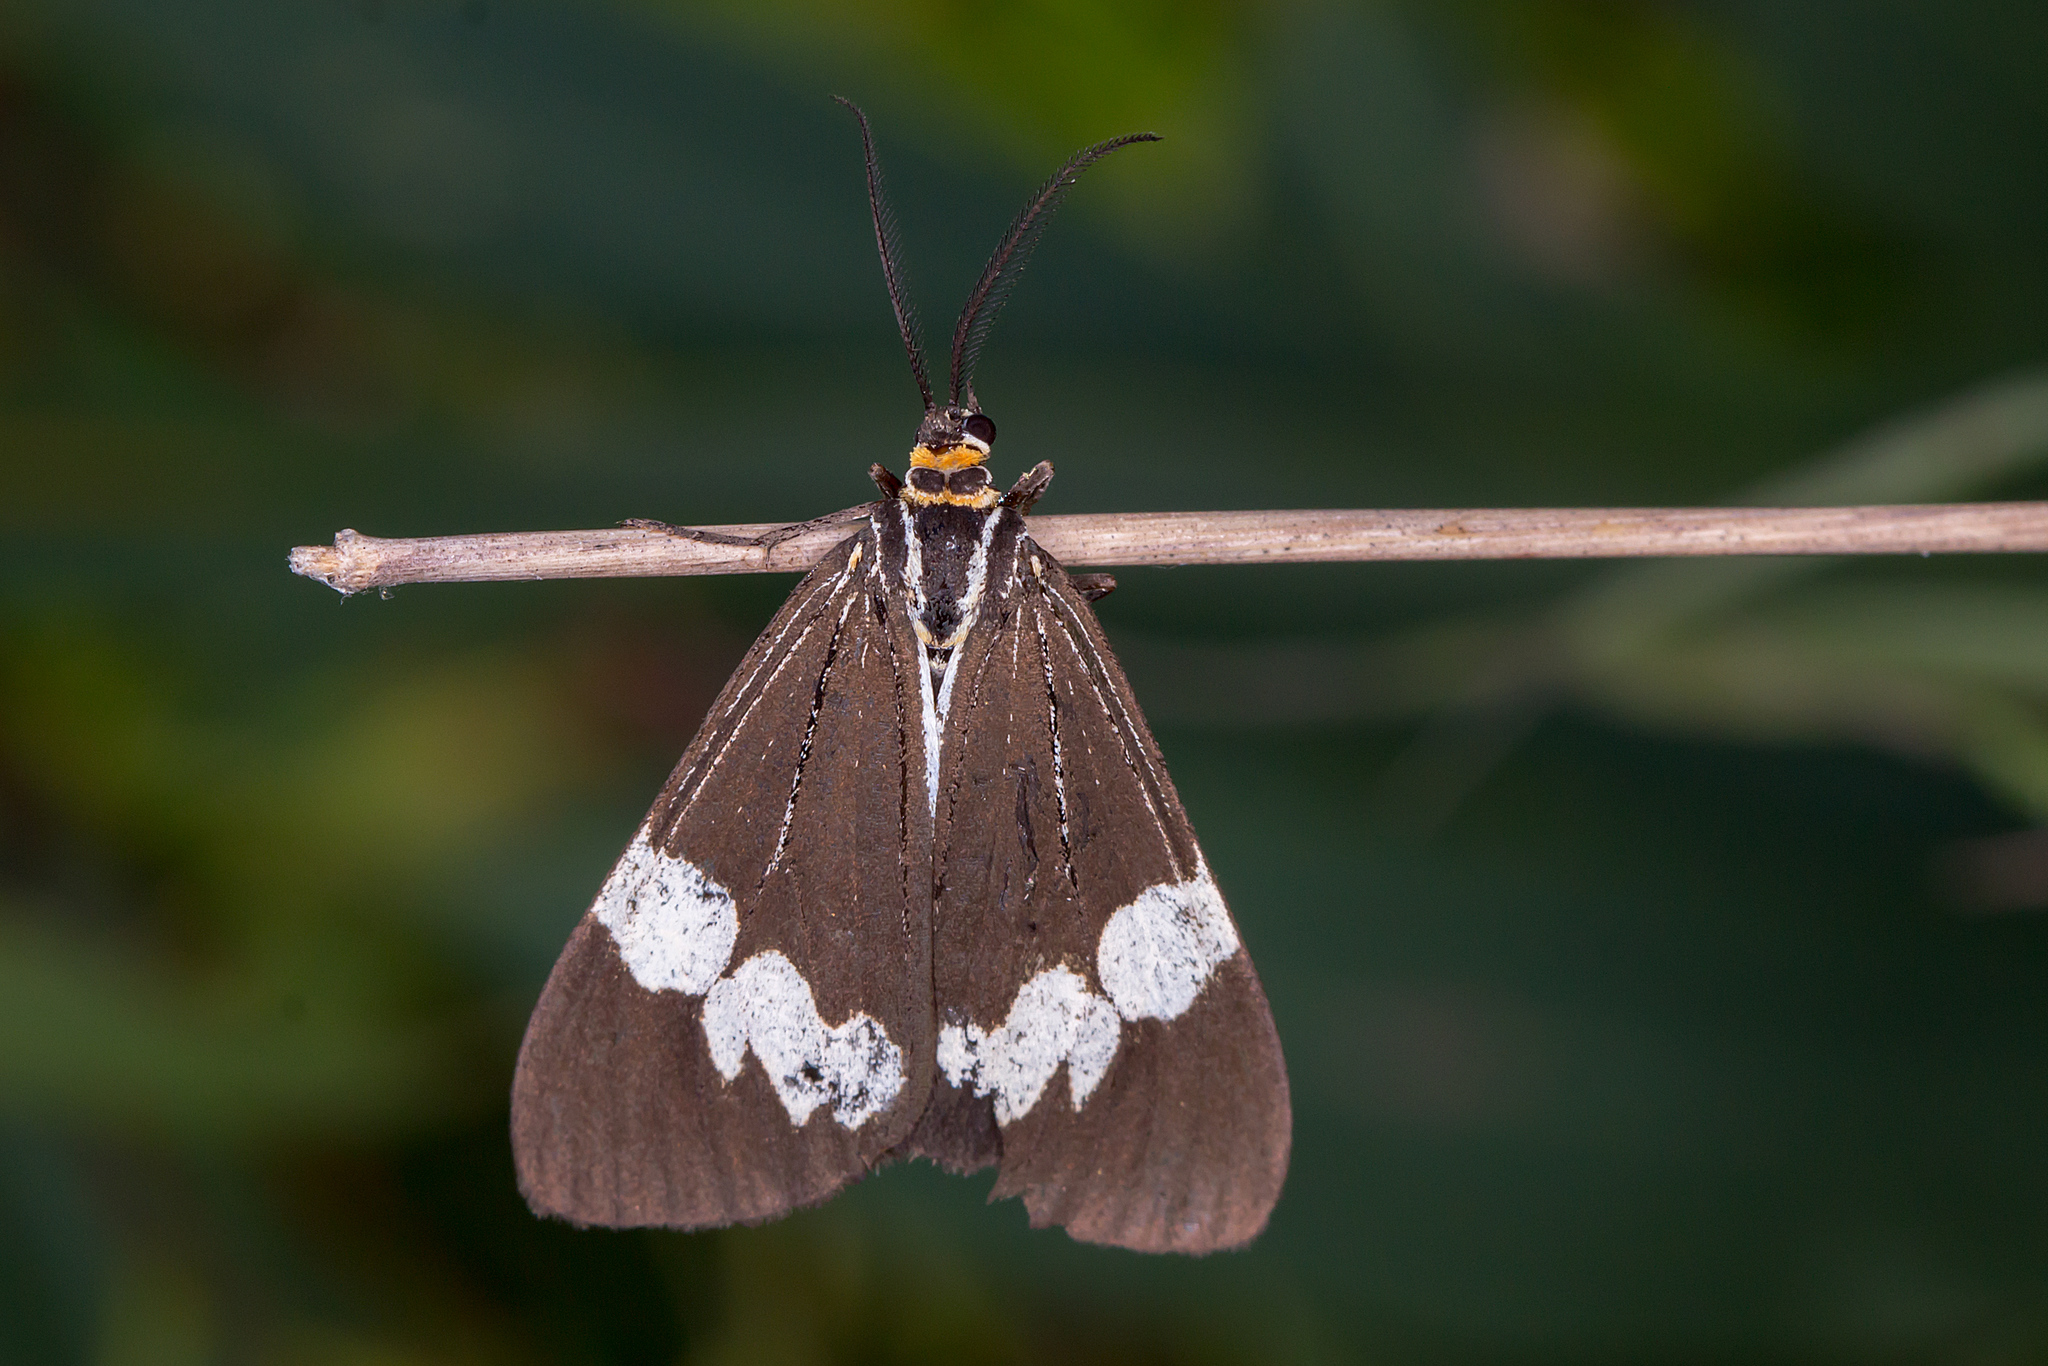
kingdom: Animalia
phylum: Arthropoda
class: Insecta
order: Lepidoptera
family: Erebidae
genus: Nyctemera
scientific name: Nyctemera amicus
